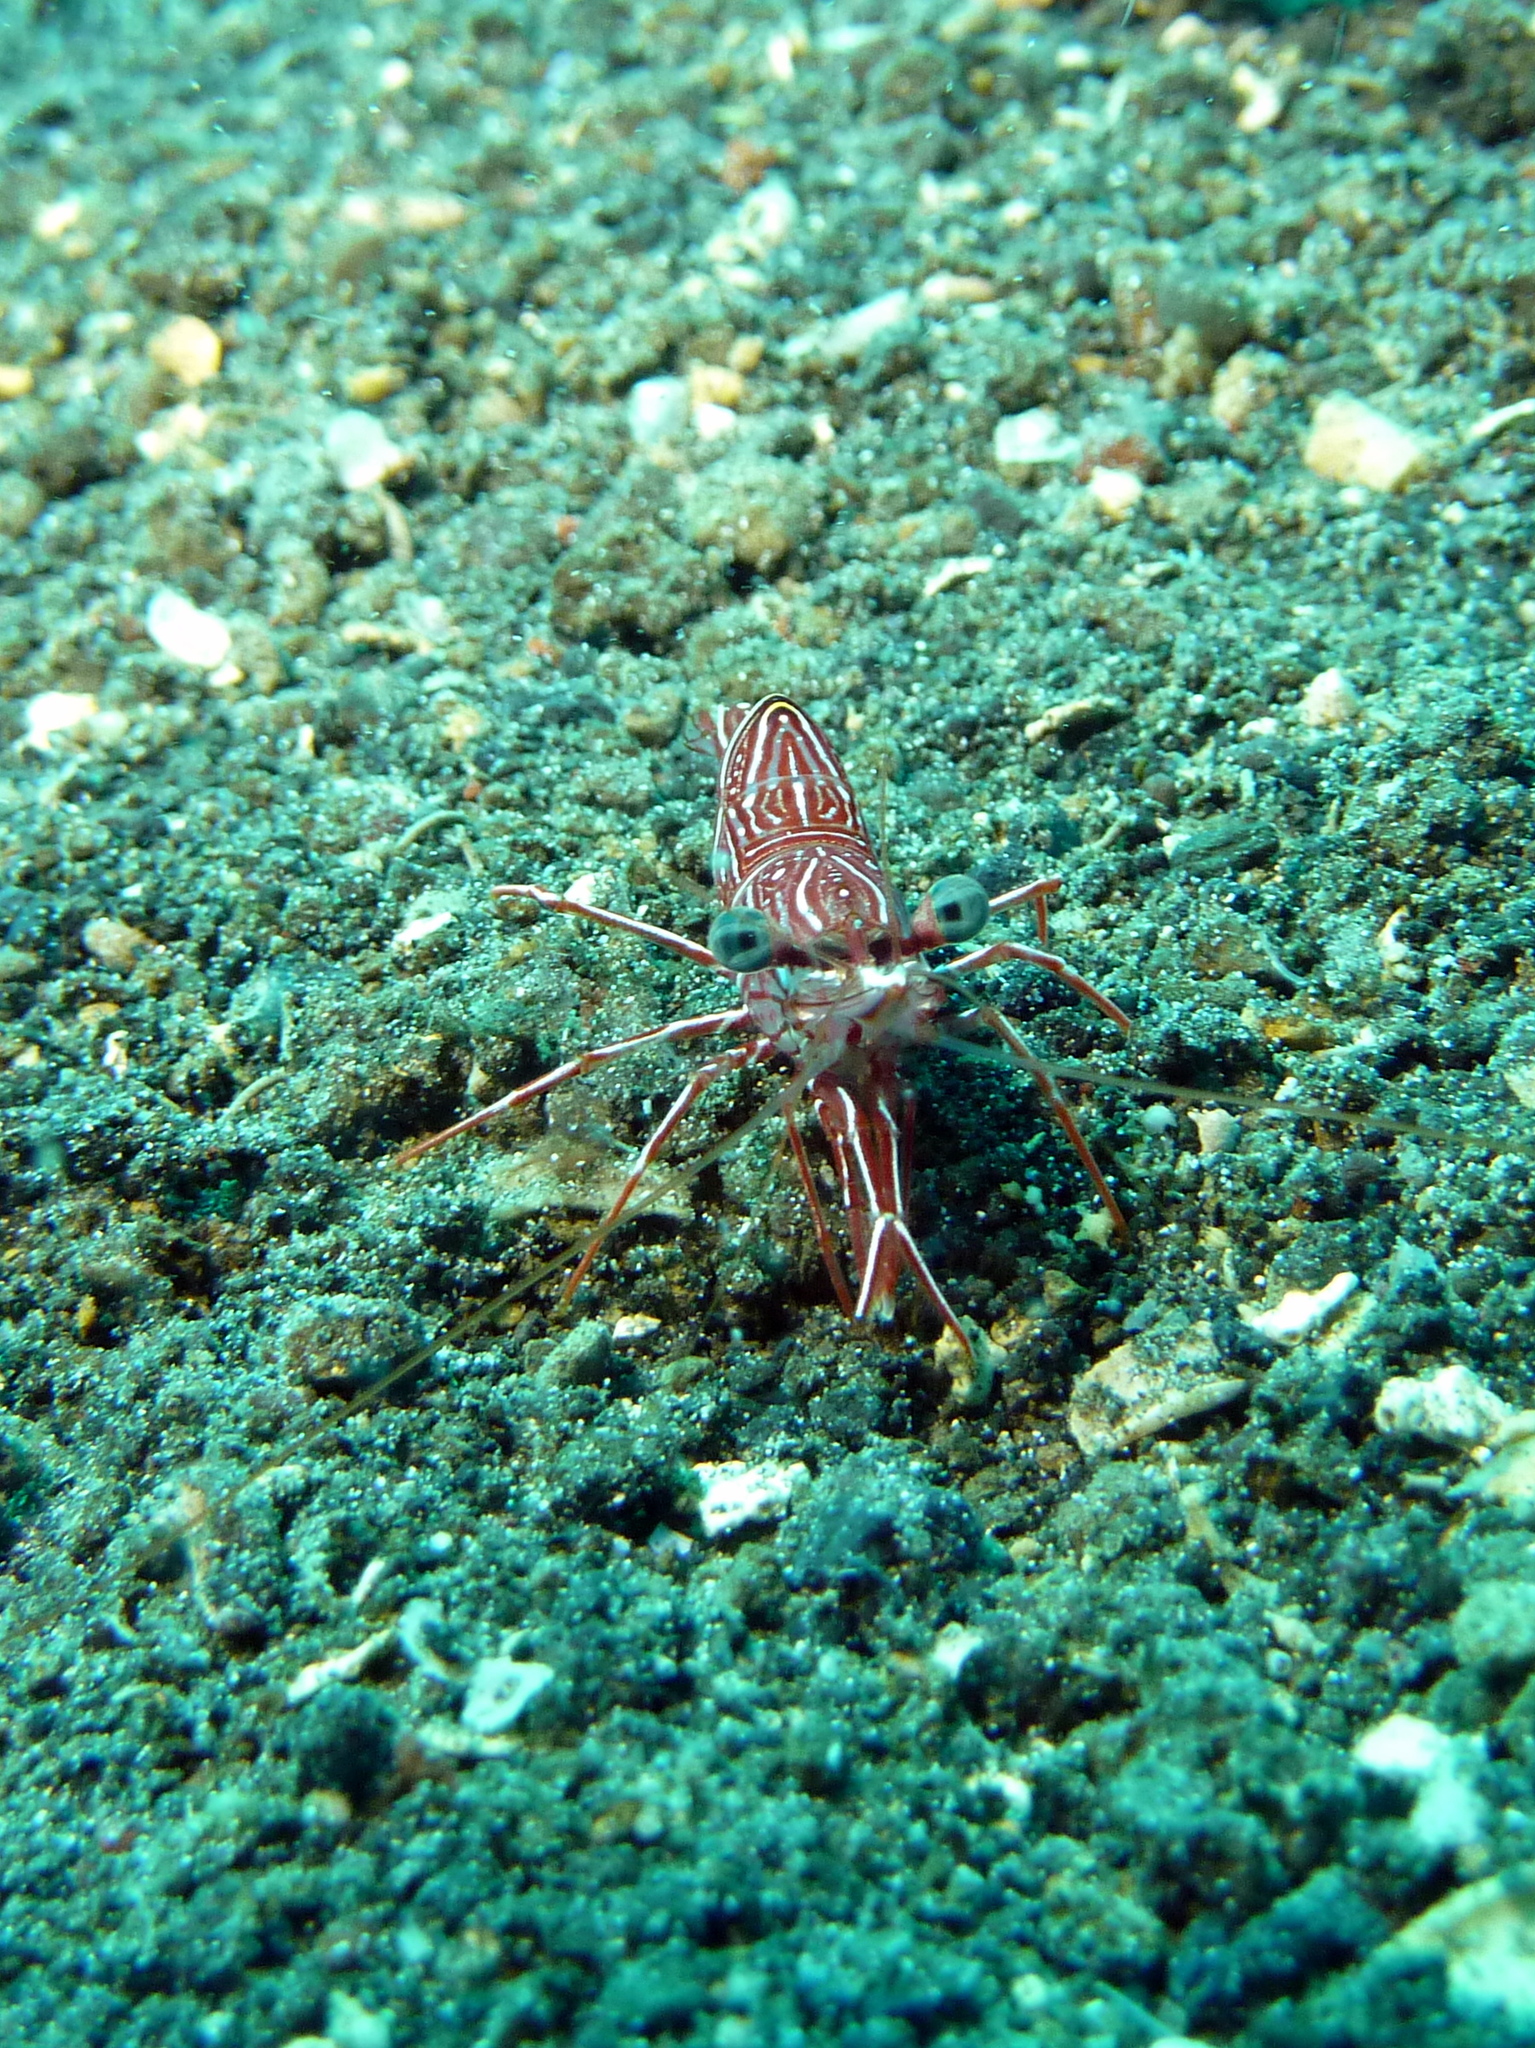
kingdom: Animalia
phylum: Arthropoda
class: Malacostraca
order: Decapoda
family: Rhynchocinetidae
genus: Rhynchocinetes
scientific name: Rhynchocinetes durbanensis
